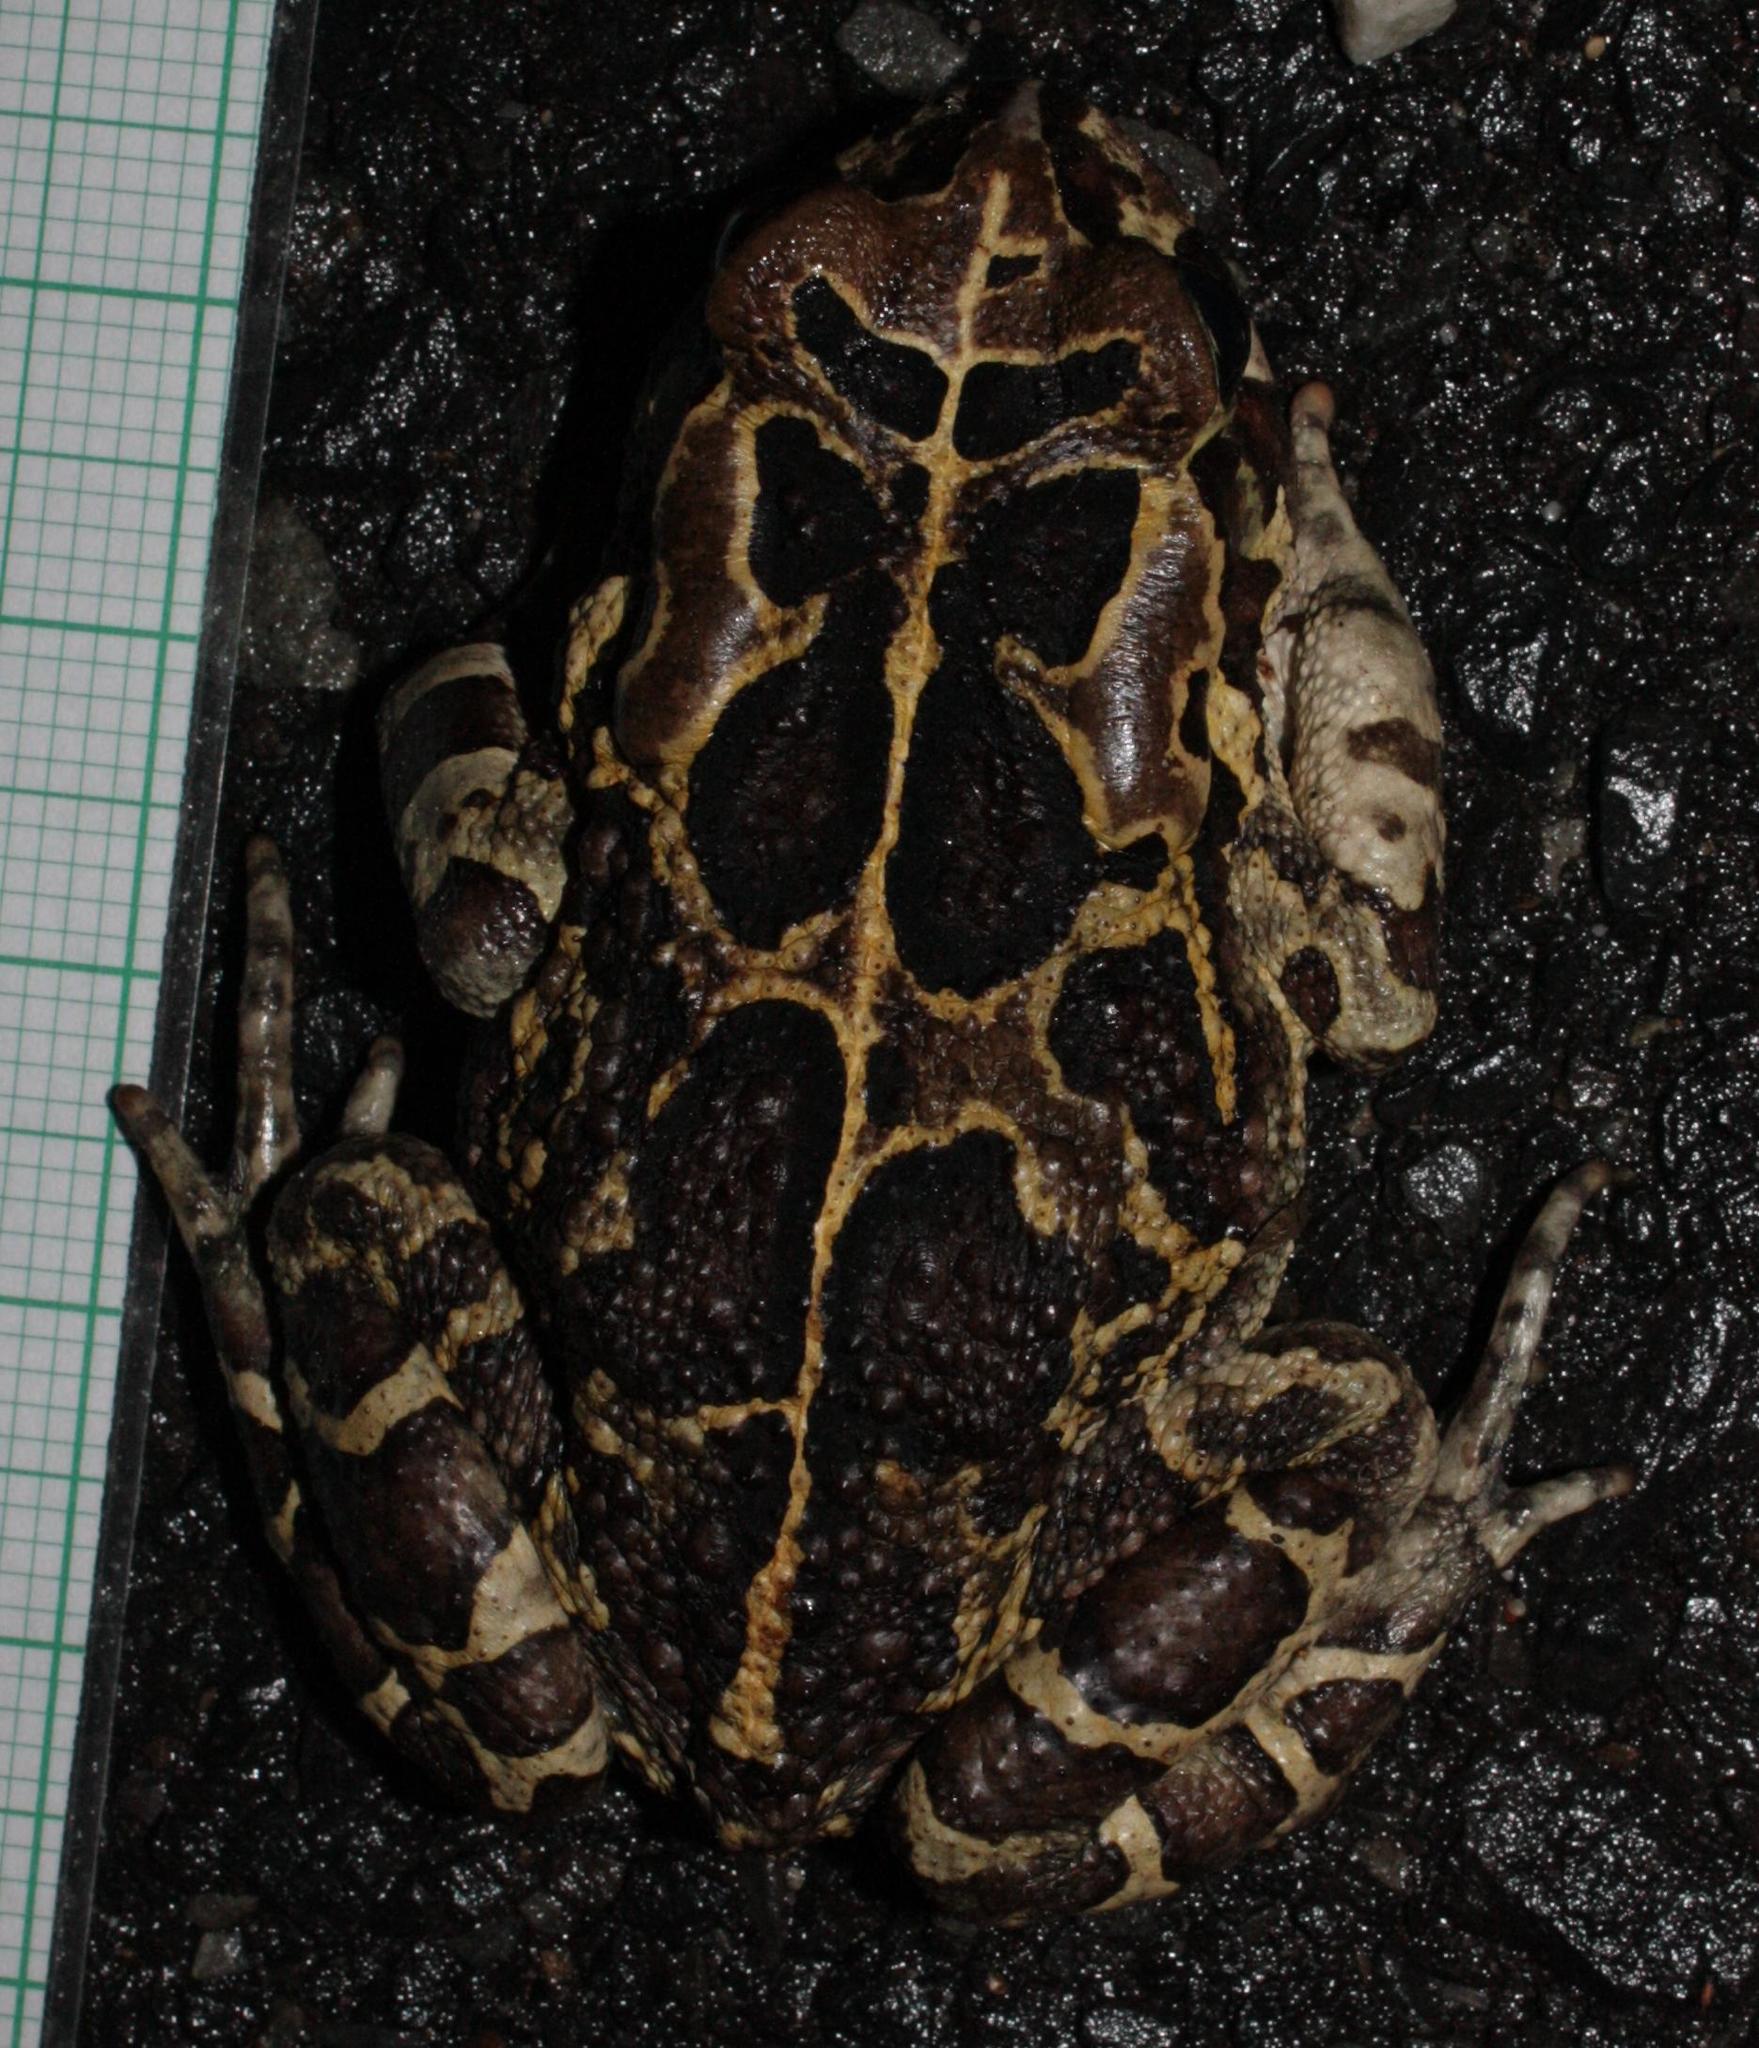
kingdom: Animalia
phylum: Chordata
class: Amphibia
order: Anura
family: Bufonidae
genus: Sclerophrys
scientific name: Sclerophrys pantherina
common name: Panther toad
